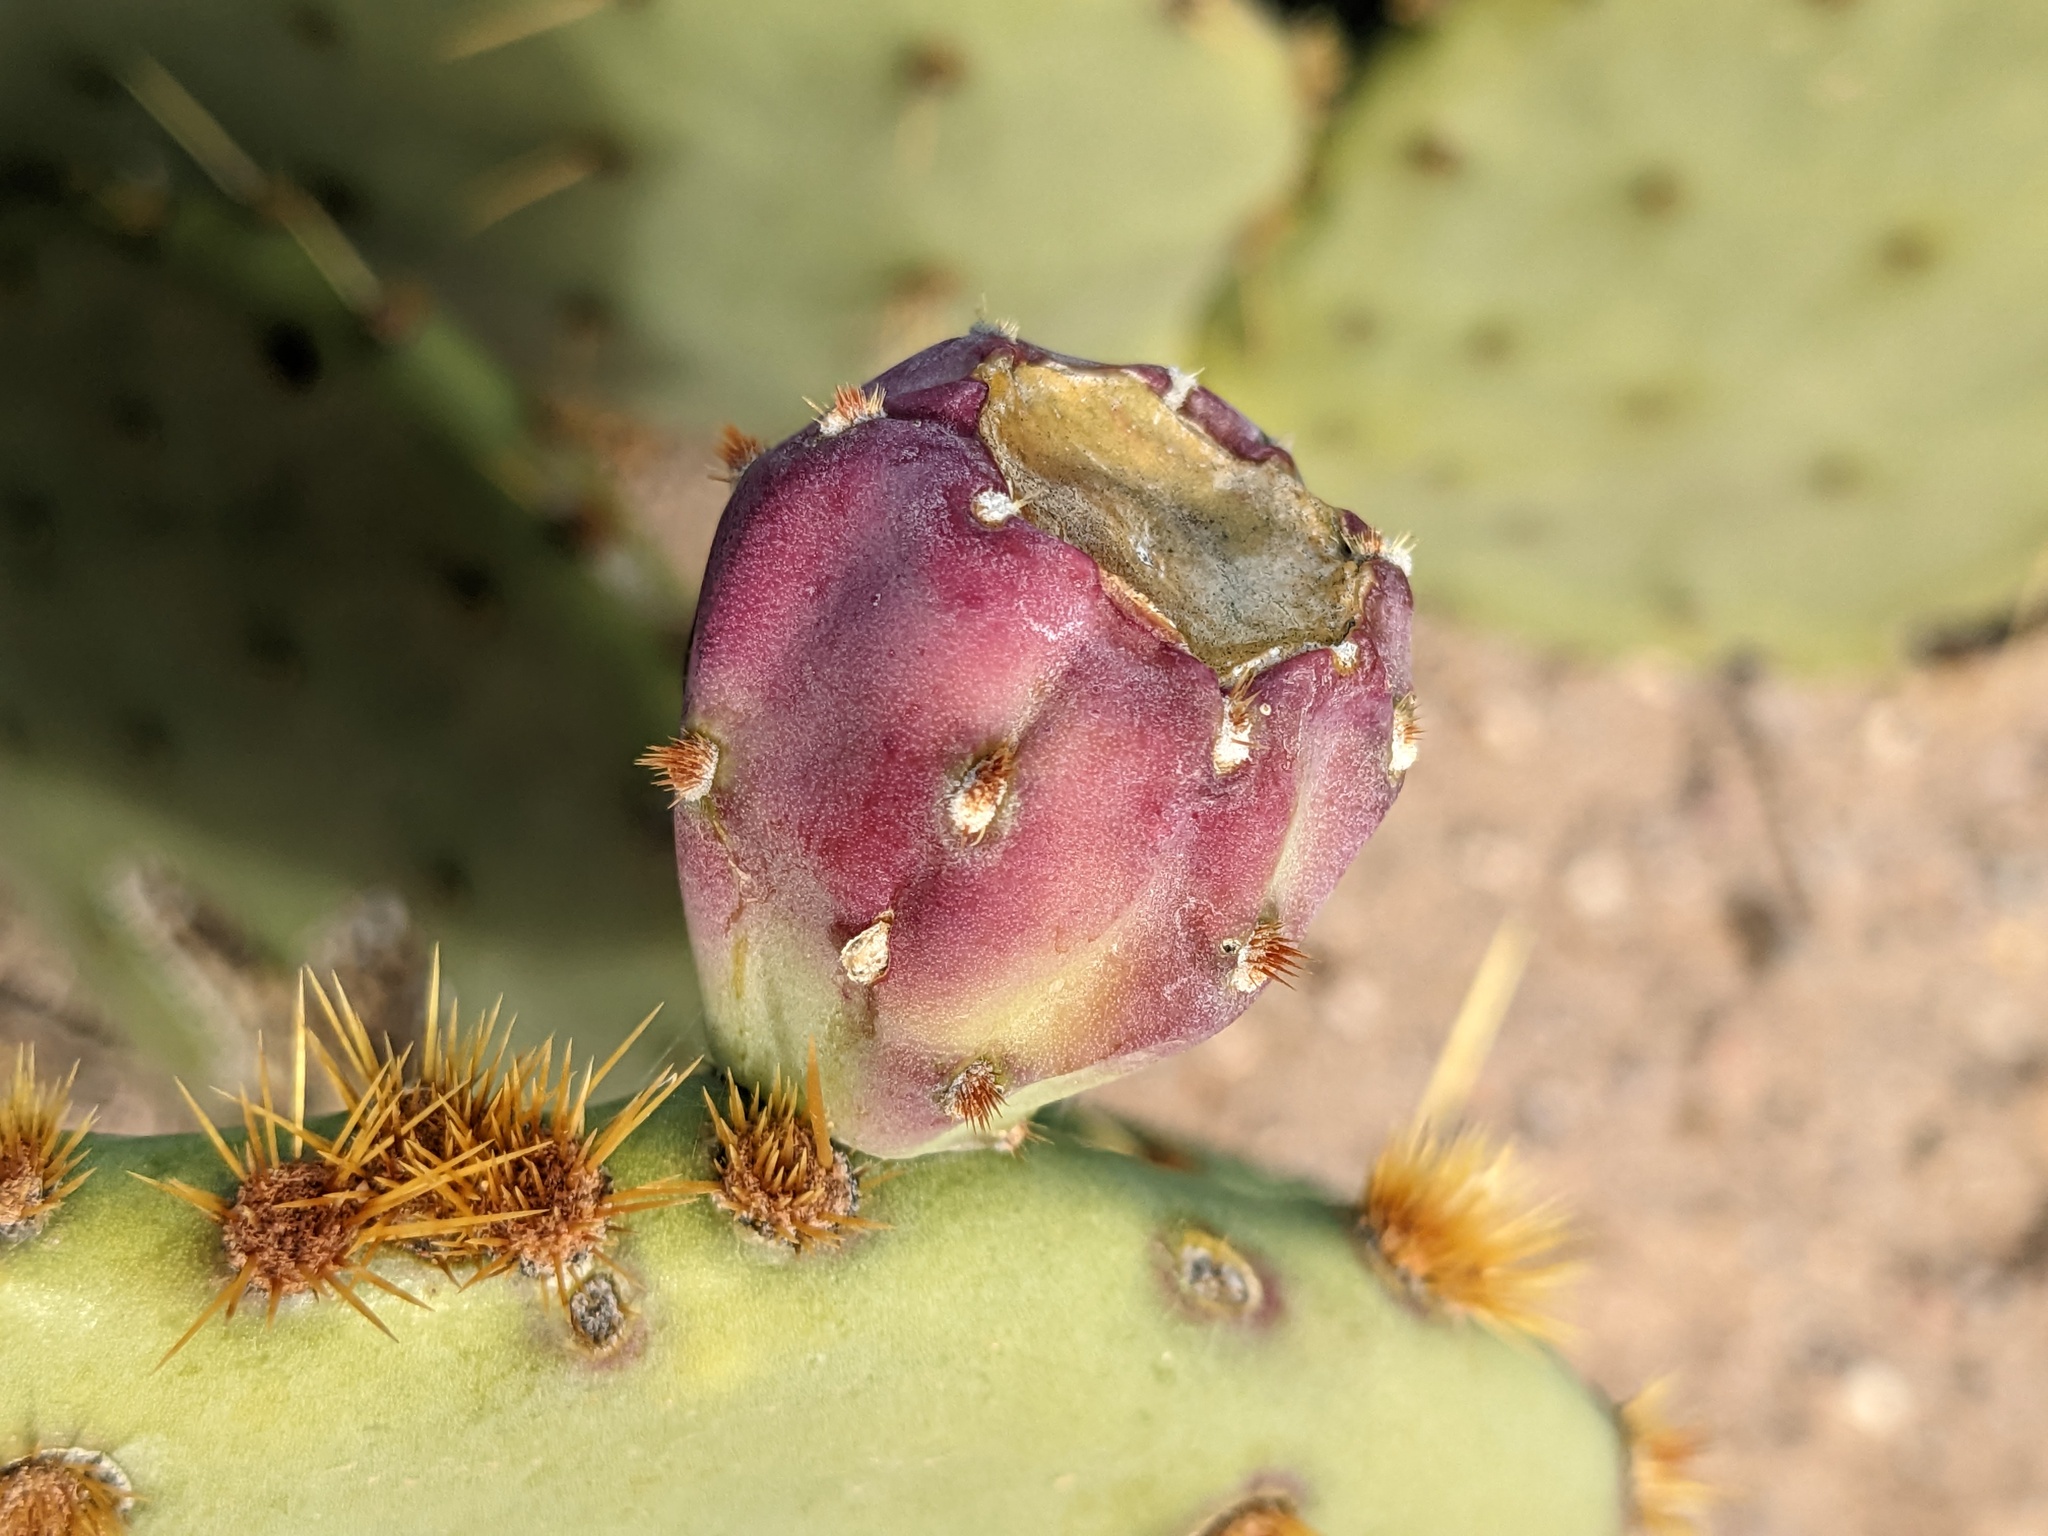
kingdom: Plantae
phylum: Tracheophyta
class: Magnoliopsida
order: Caryophyllales
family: Cactaceae
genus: Opuntia
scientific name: Opuntia engelmannii
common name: Cactus-apple
